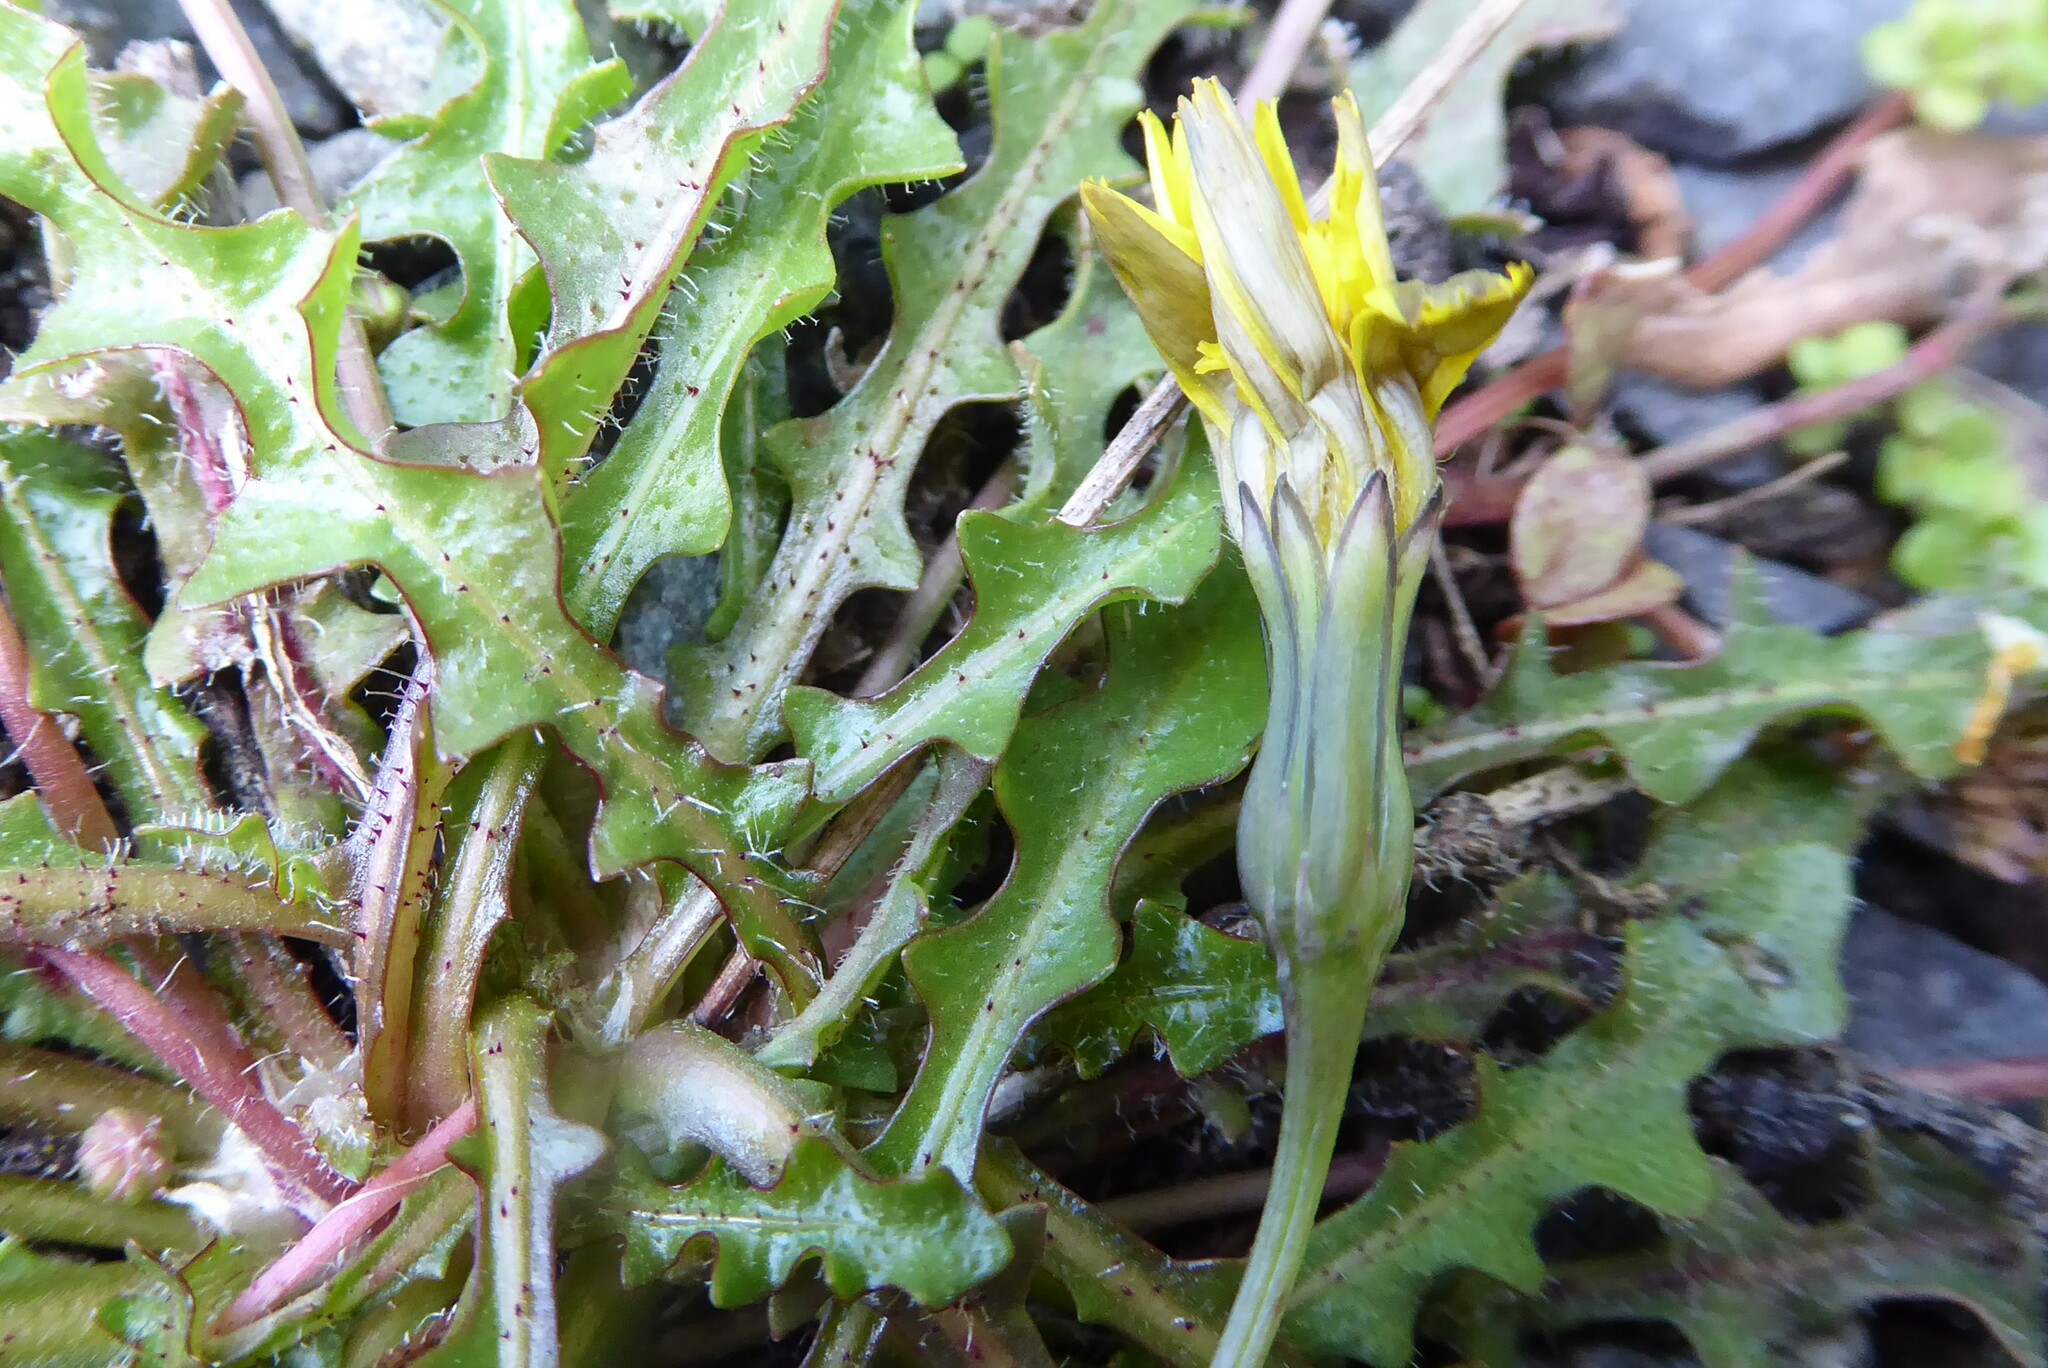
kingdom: Plantae
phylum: Tracheophyta
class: Magnoliopsida
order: Asterales
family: Asteraceae
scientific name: Asteraceae
